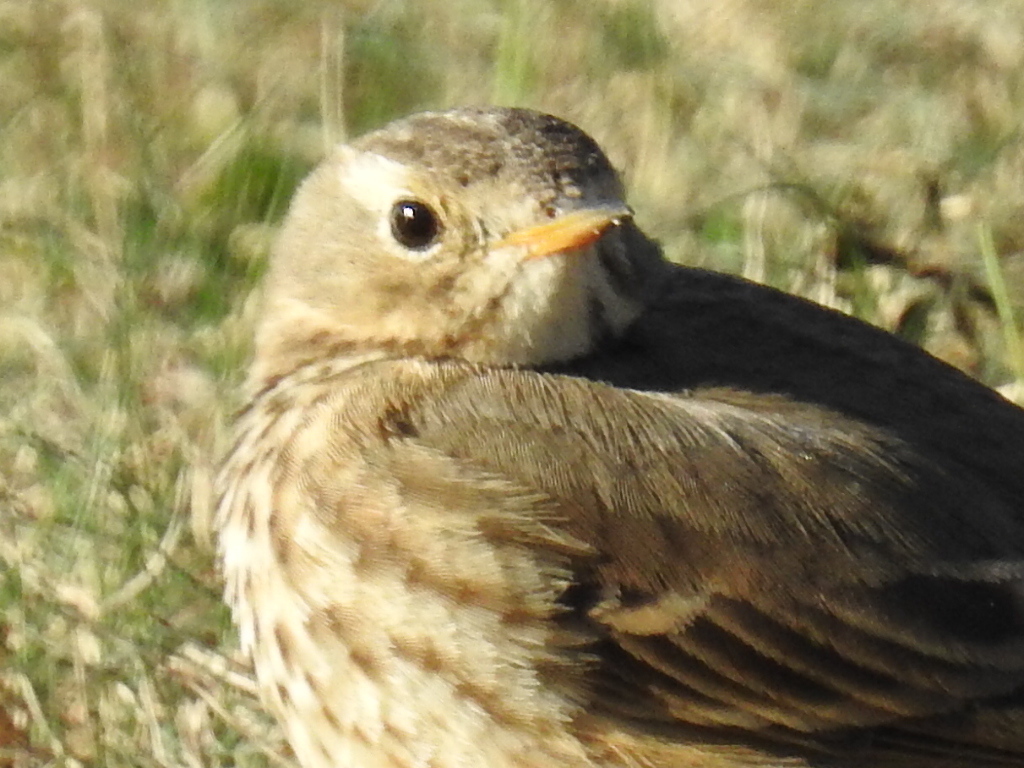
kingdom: Animalia
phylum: Chordata
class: Aves
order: Passeriformes
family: Motacillidae
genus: Anthus
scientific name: Anthus rubescens
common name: Buff-bellied pipit
